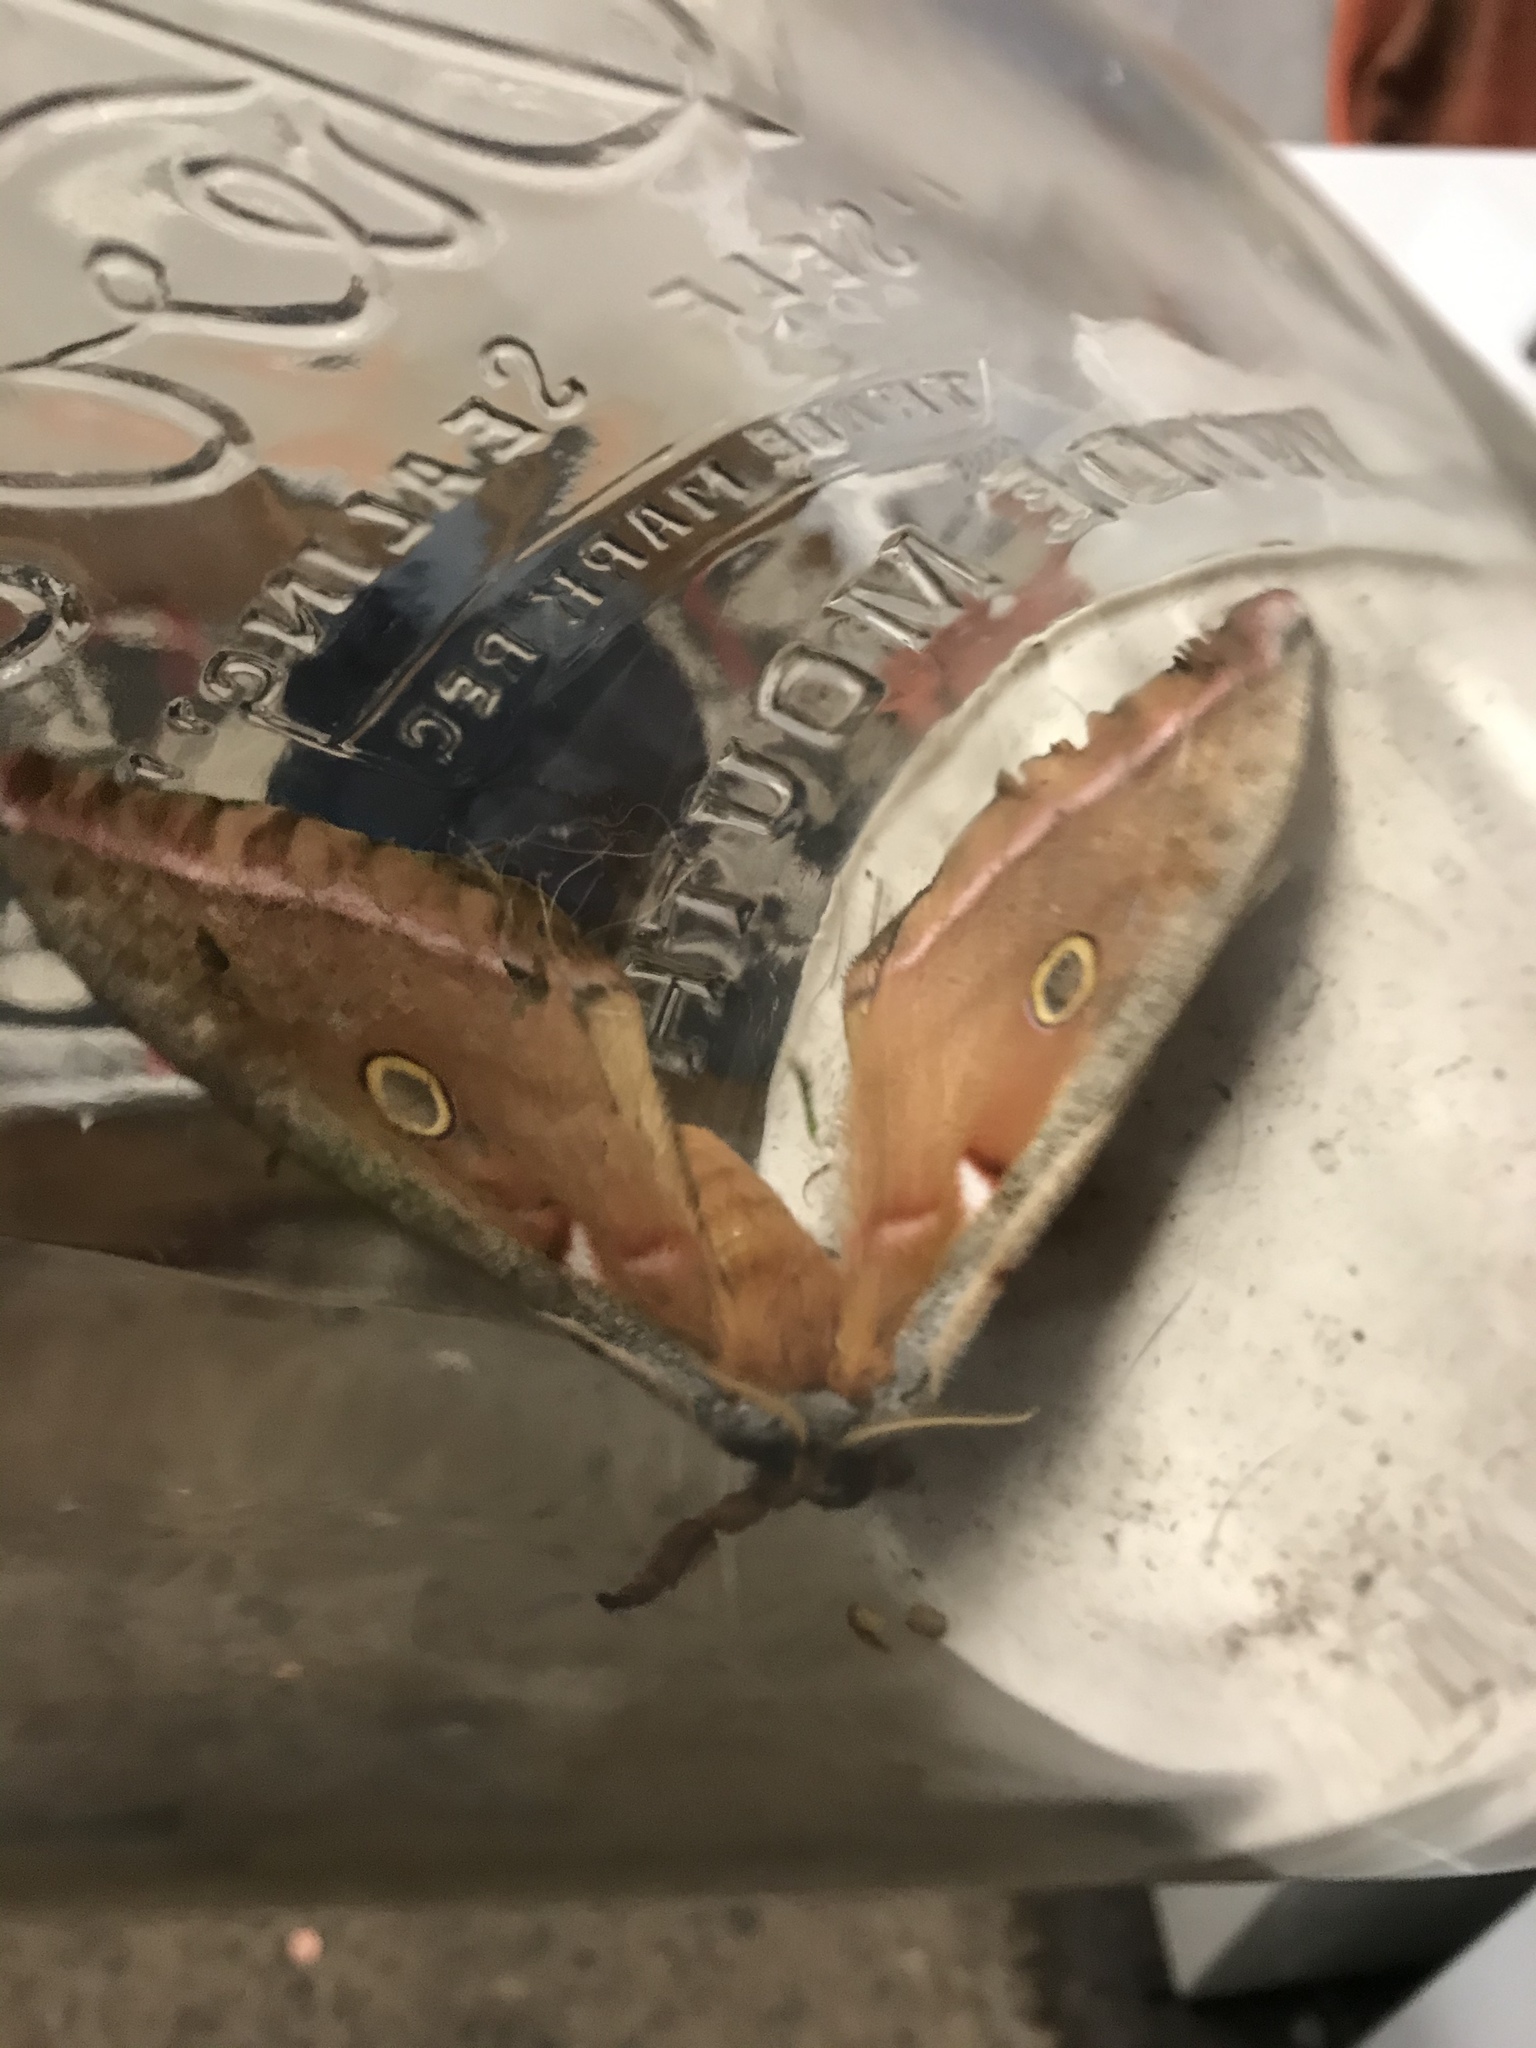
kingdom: Animalia
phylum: Arthropoda
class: Insecta
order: Lepidoptera
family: Saturniidae
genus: Antheraea
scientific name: Antheraea polyphemus
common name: Polyphemus moth
